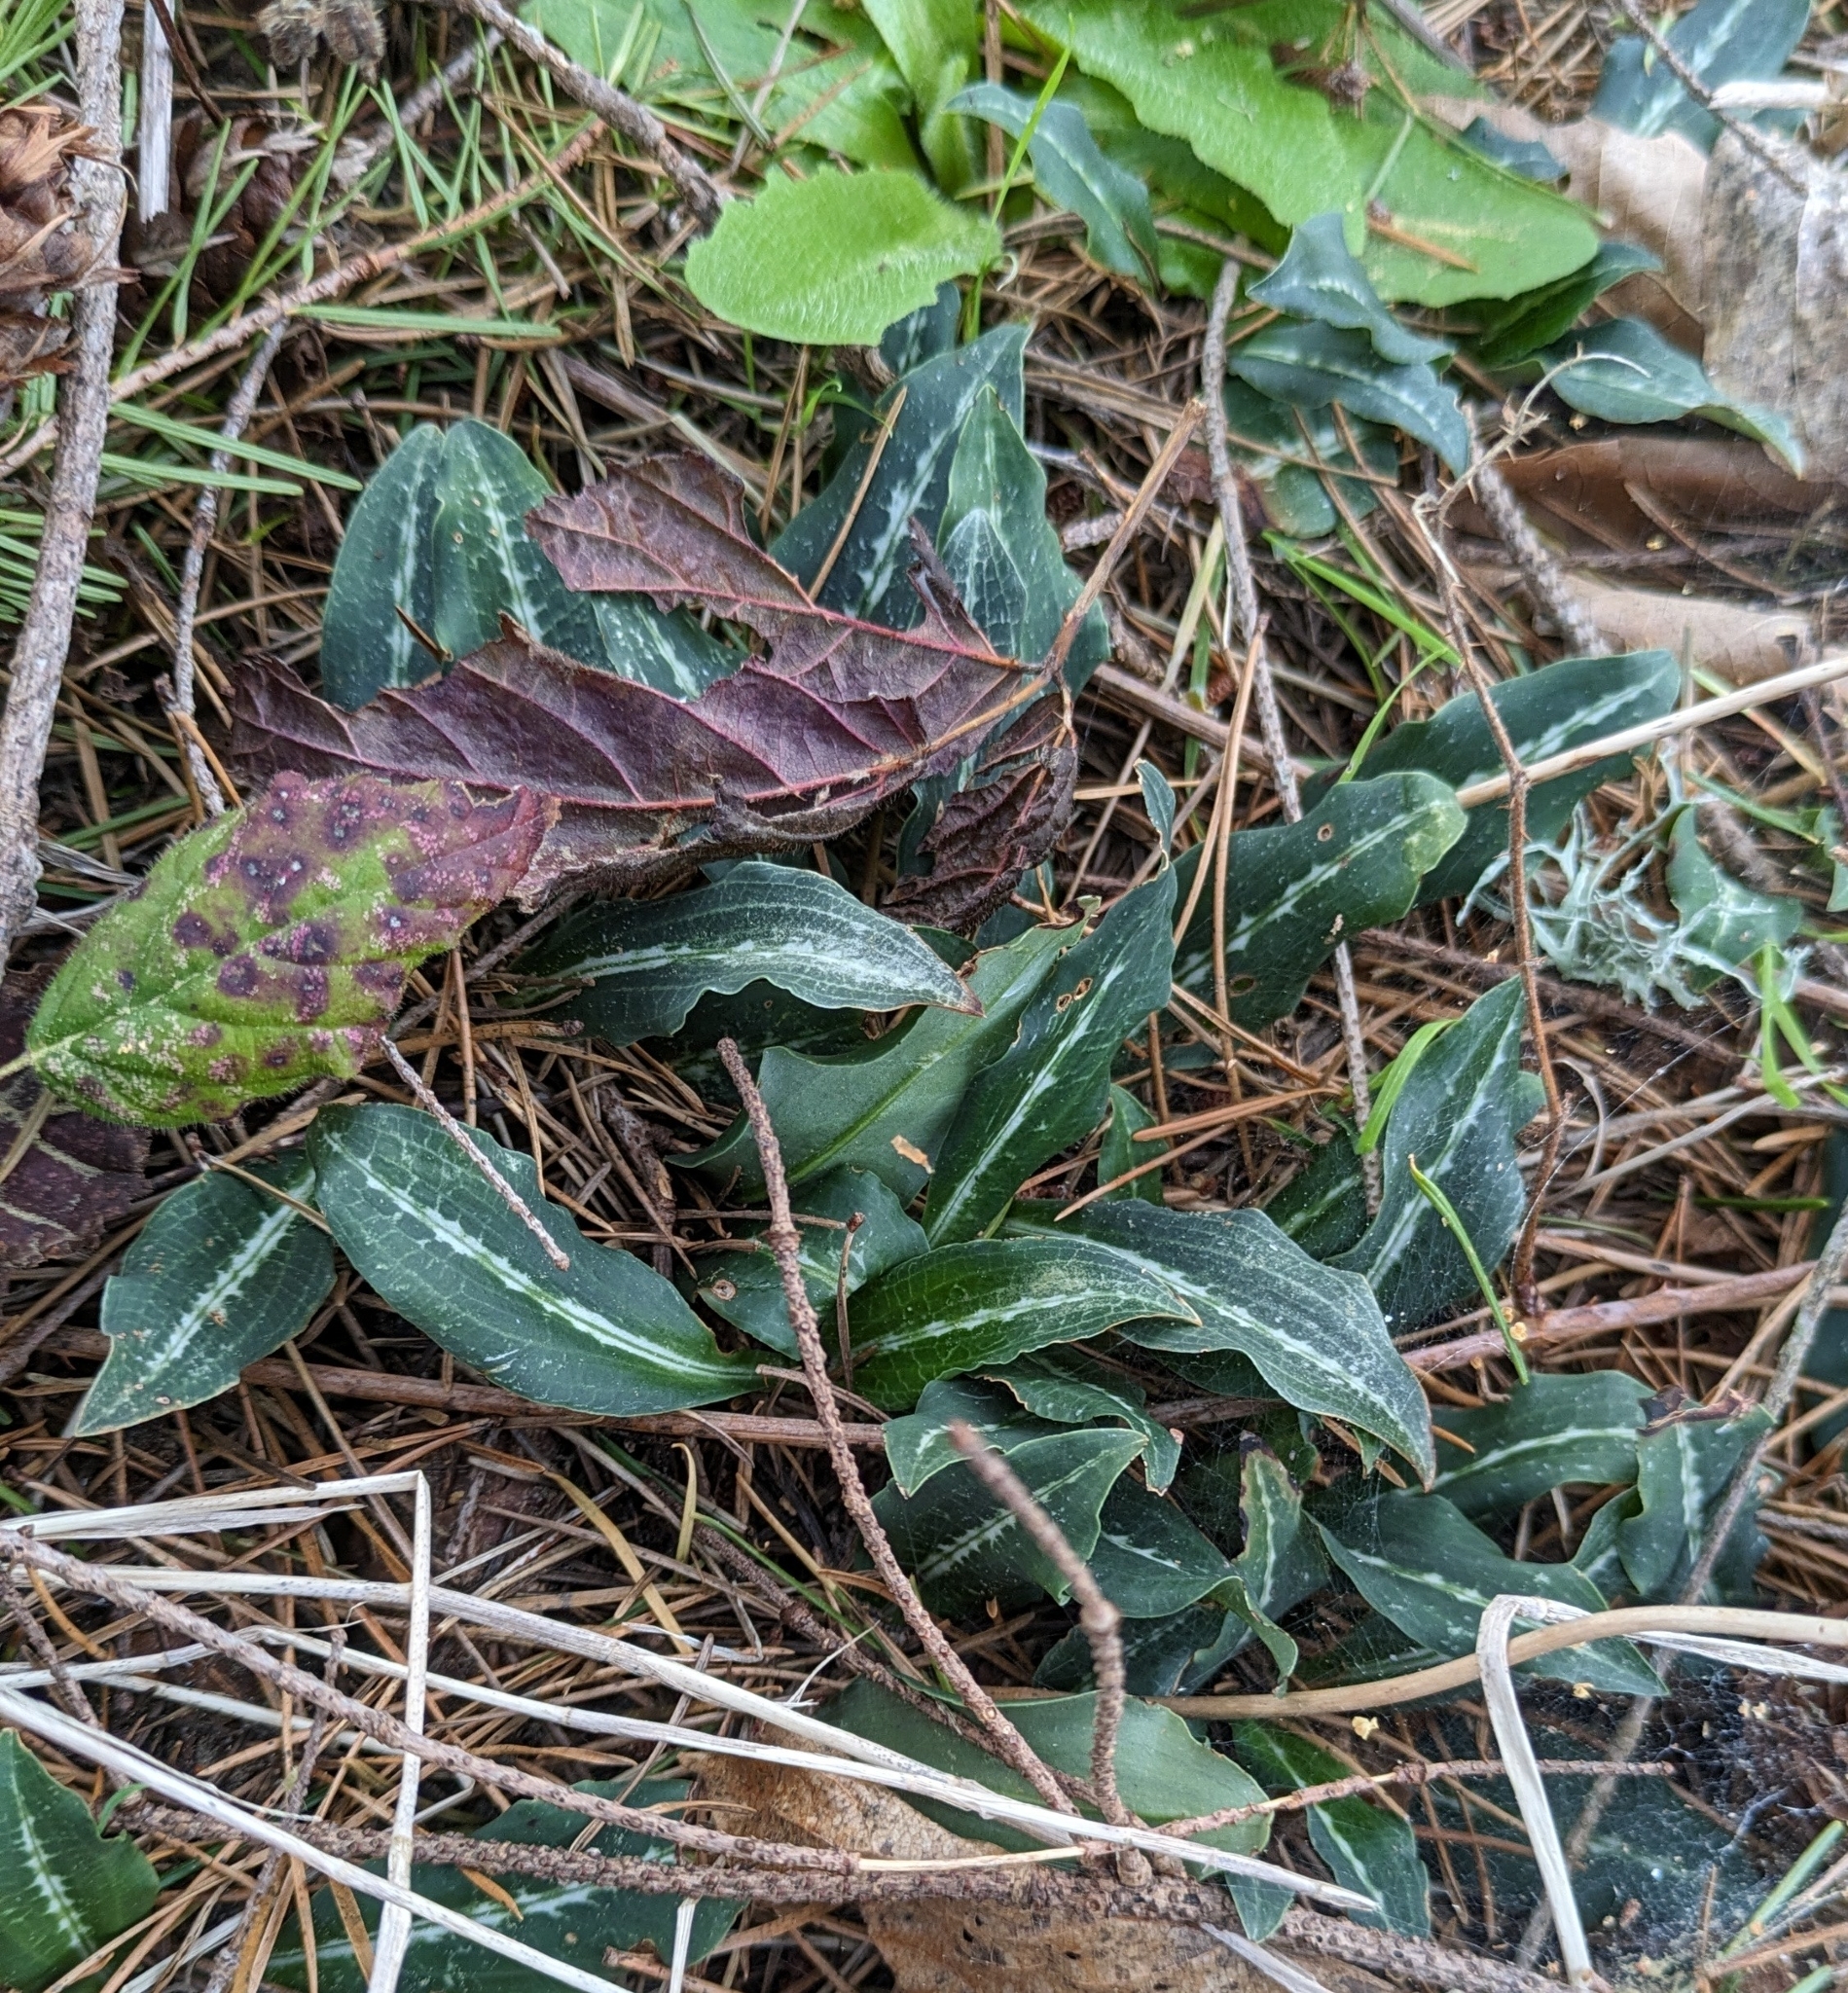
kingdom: Plantae
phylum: Tracheophyta
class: Liliopsida
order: Asparagales
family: Orchidaceae
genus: Goodyera
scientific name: Goodyera oblongifolia
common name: Giant rattlesnake-plantain
